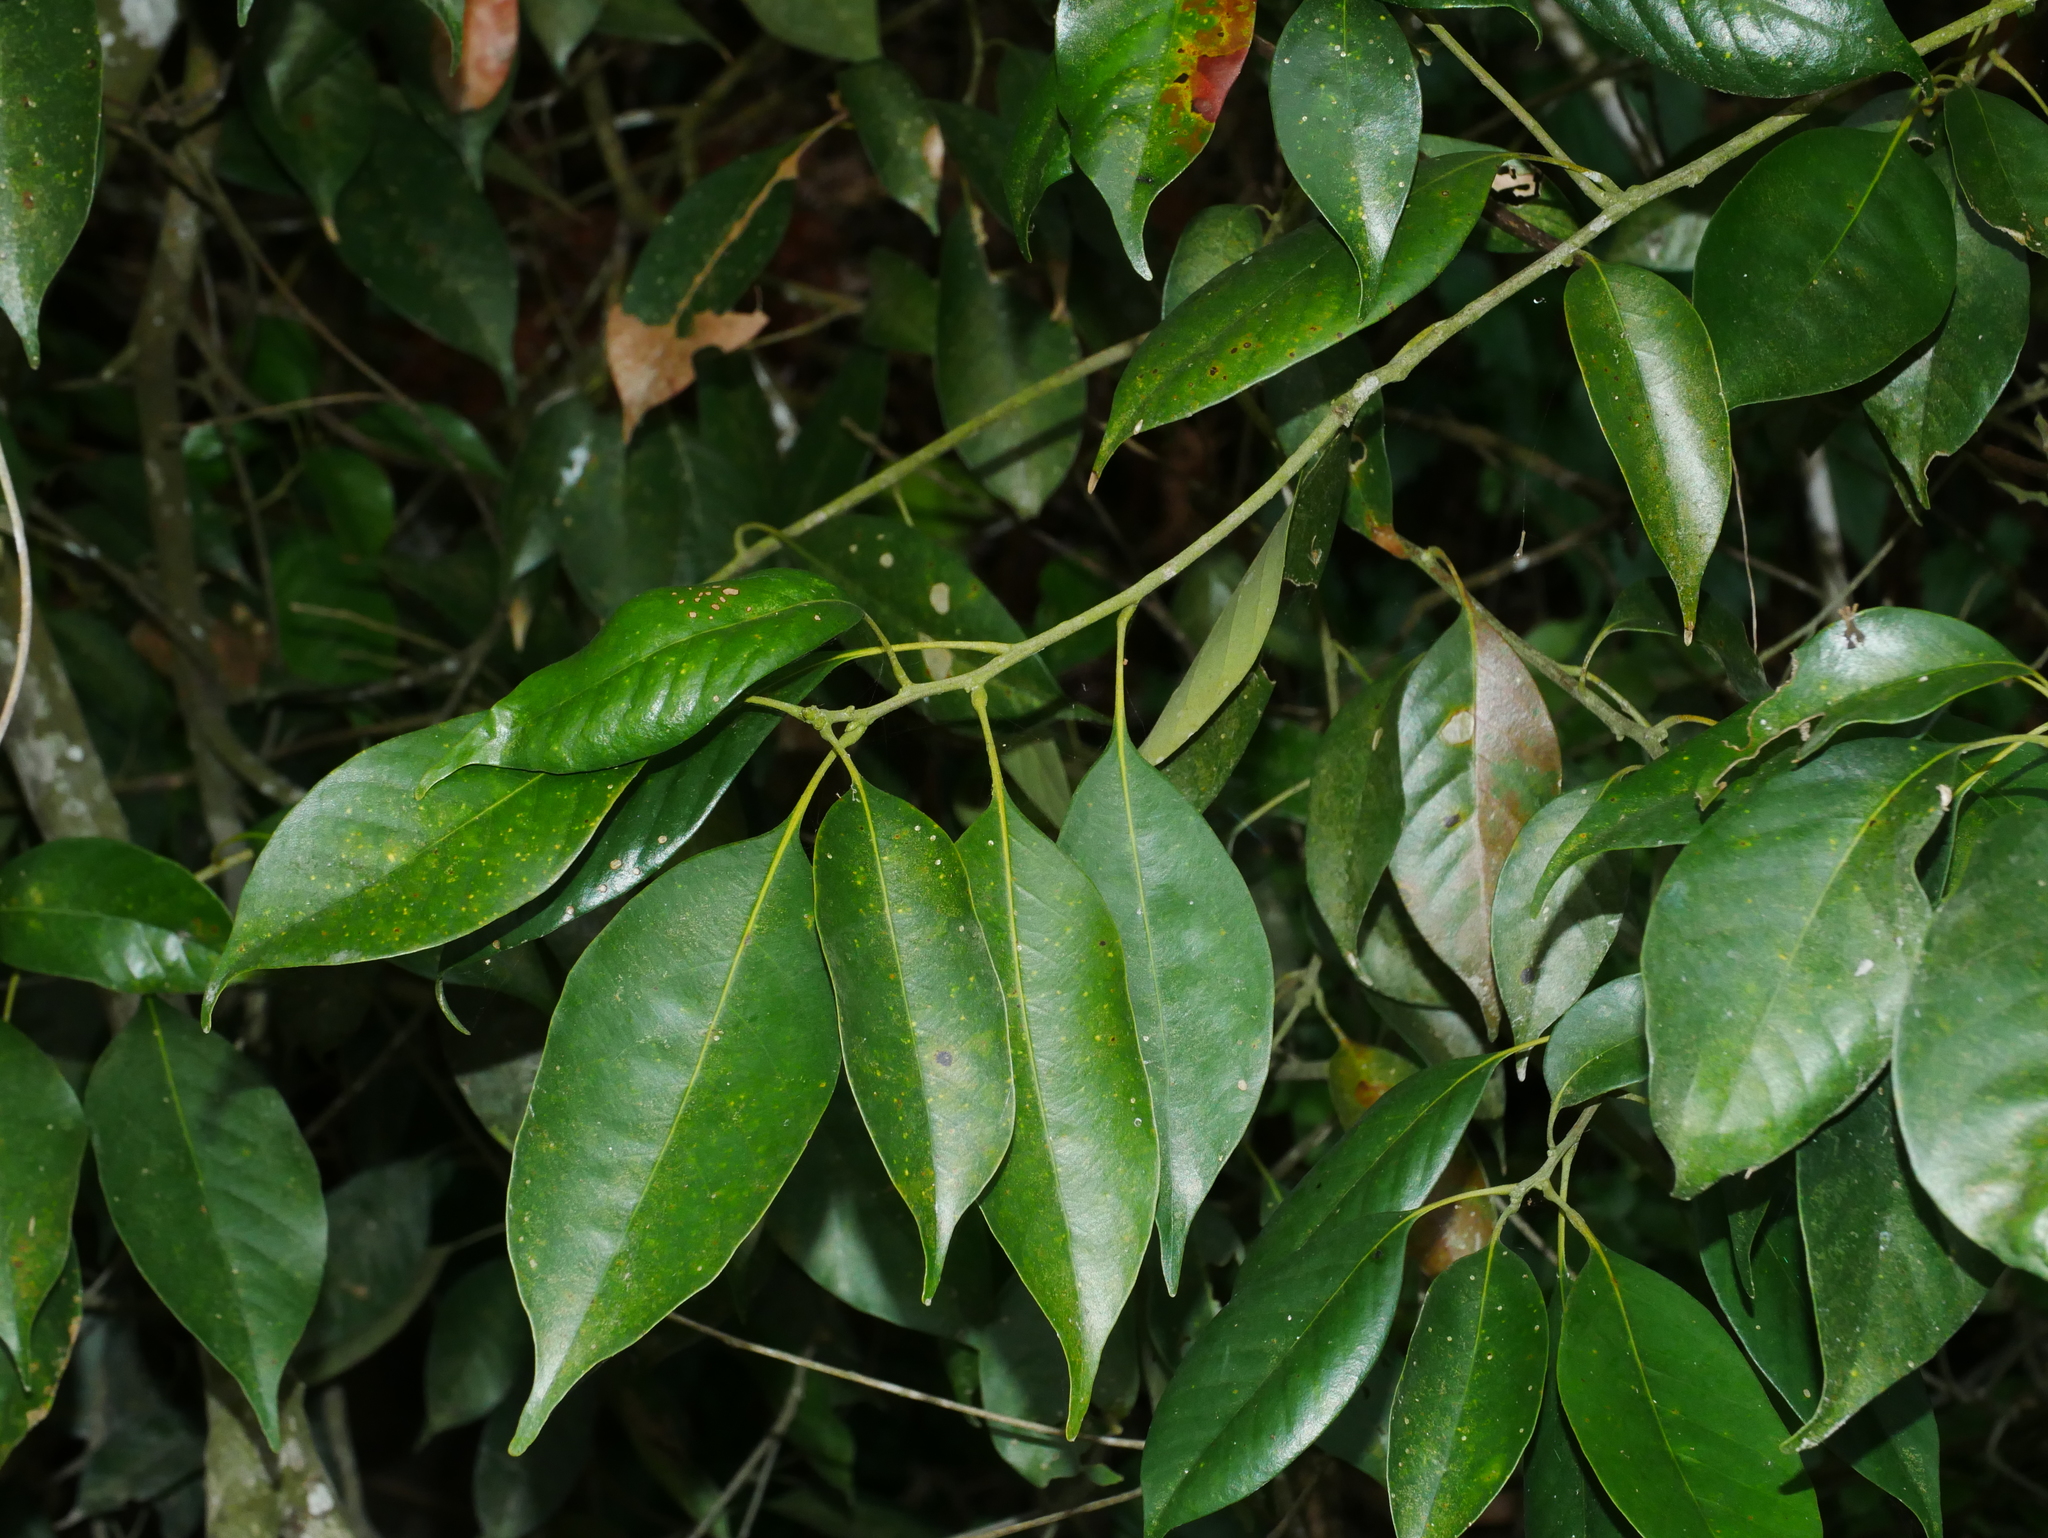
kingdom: Plantae
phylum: Tracheophyta
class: Magnoliopsida
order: Fagales
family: Fagaceae
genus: Lithocarpus
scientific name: Lithocarpus taitoensis
